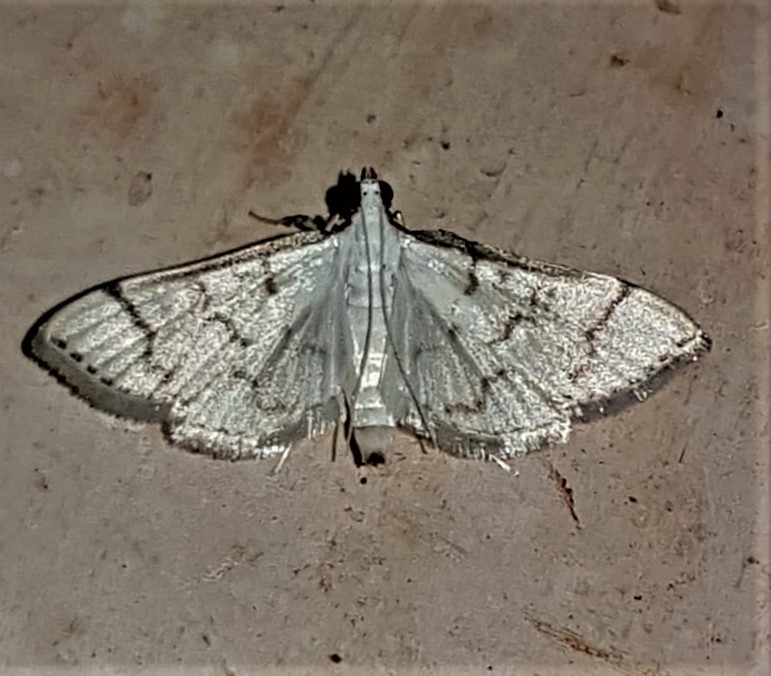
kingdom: Animalia
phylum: Arthropoda
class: Insecta
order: Lepidoptera
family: Crambidae
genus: Lamprosema
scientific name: Lamprosema Blepharomastix ranalis
